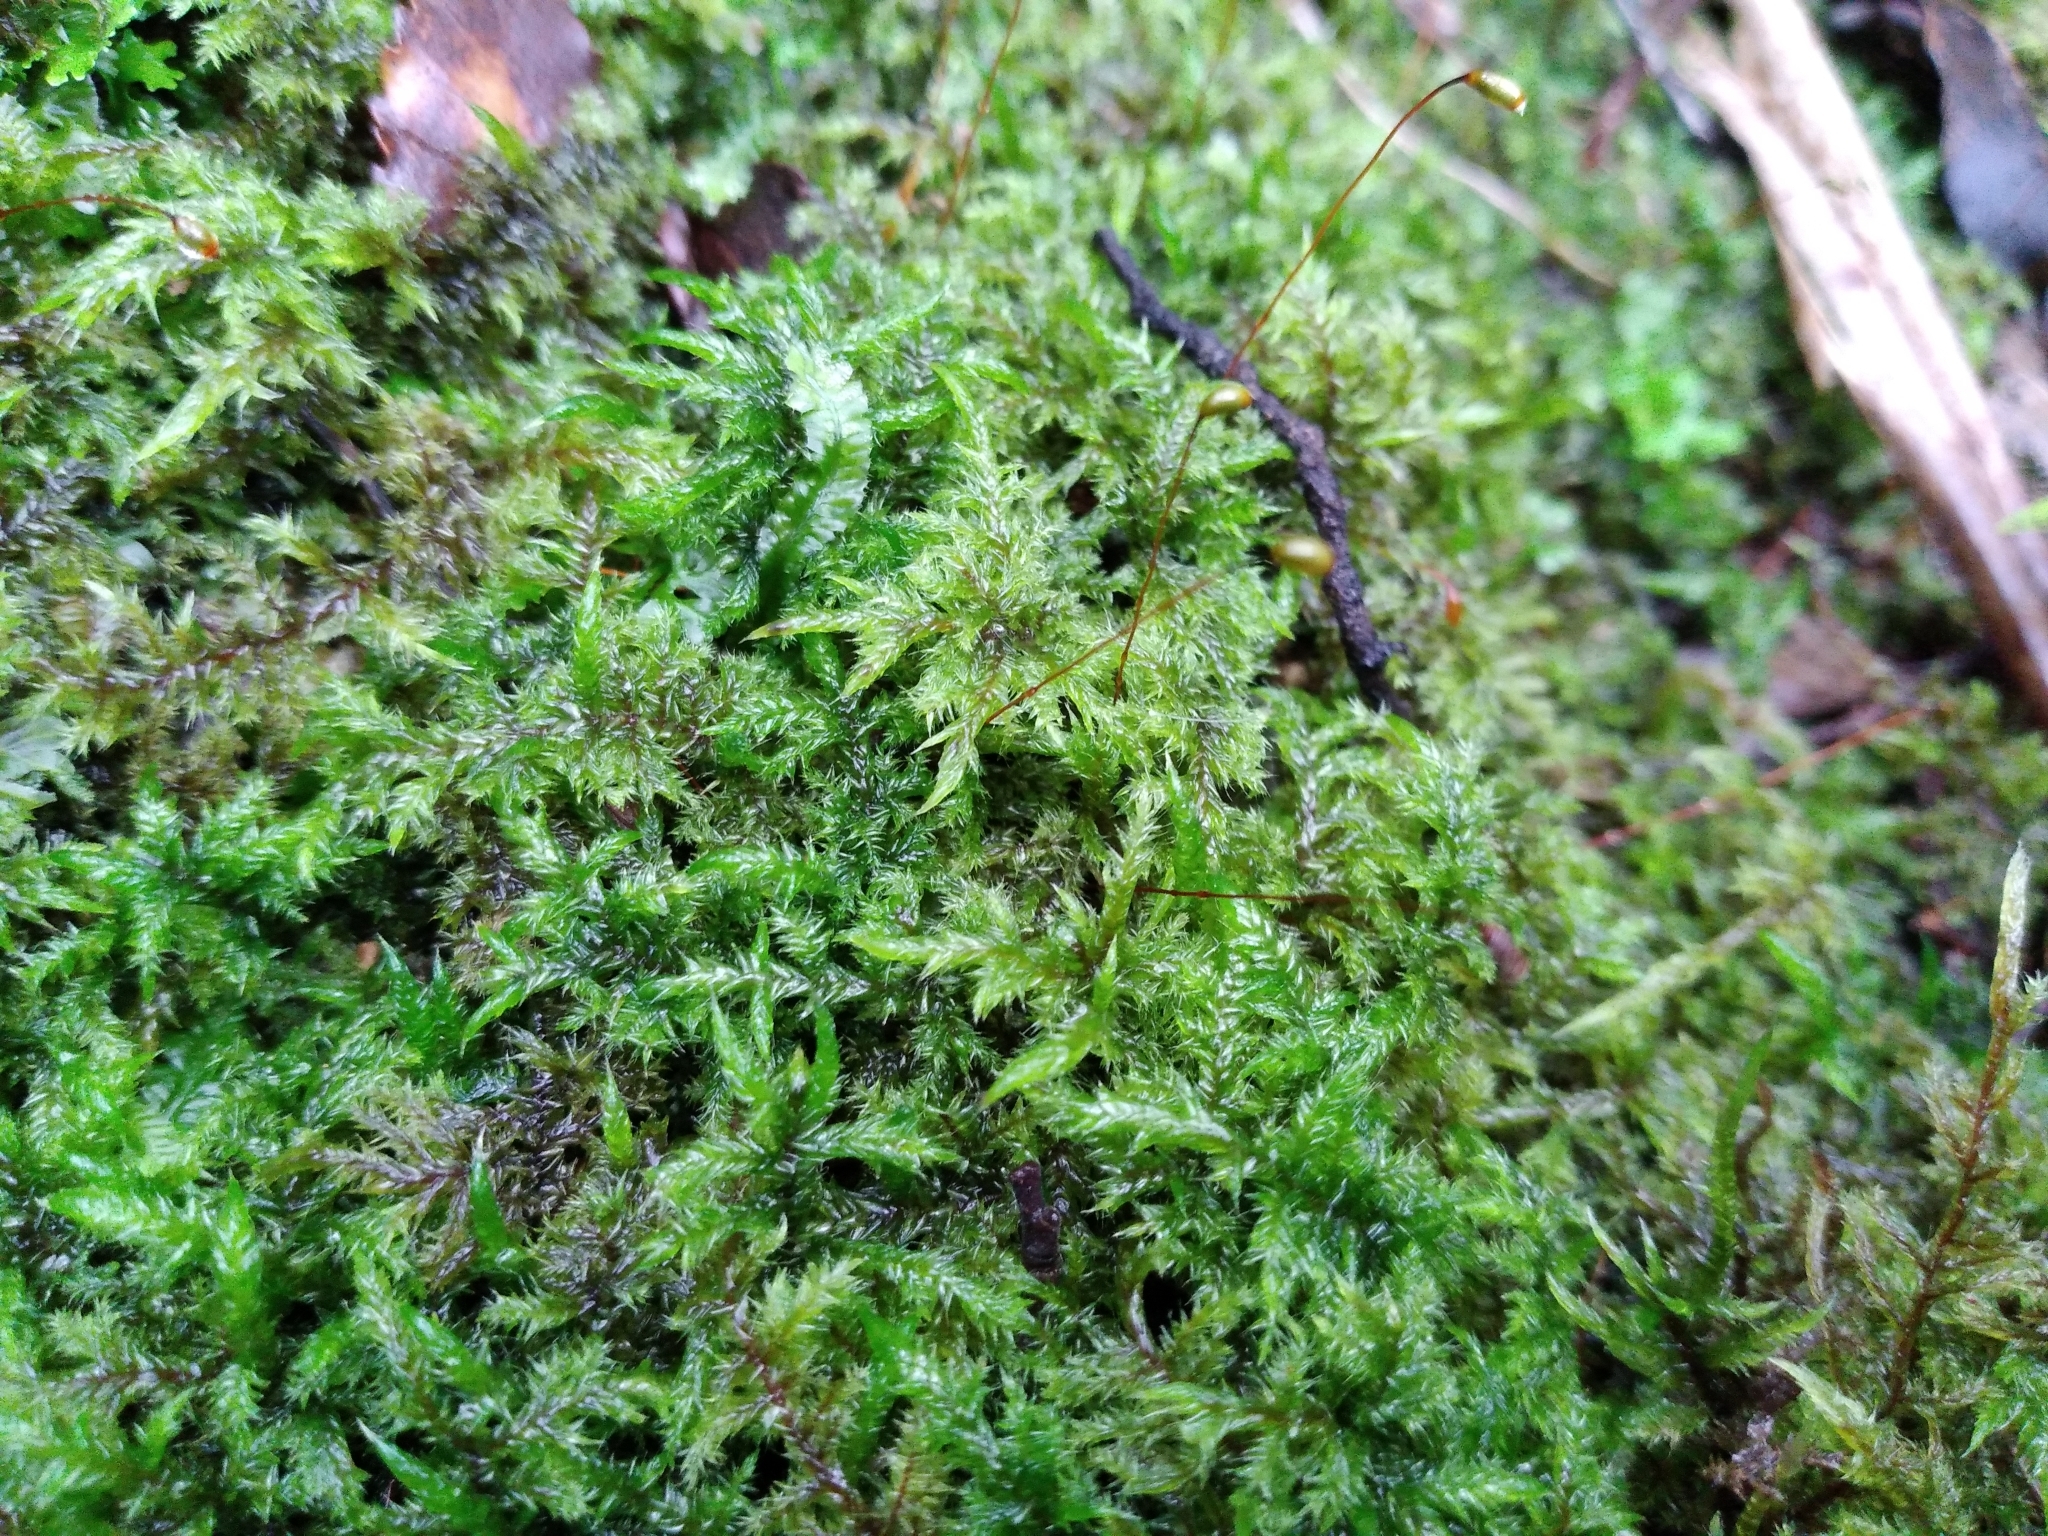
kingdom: Plantae
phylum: Bryophyta
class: Bryopsida
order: Hypnales
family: Pylaisiadelphaceae
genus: Wijkia
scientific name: Wijkia extenuata
